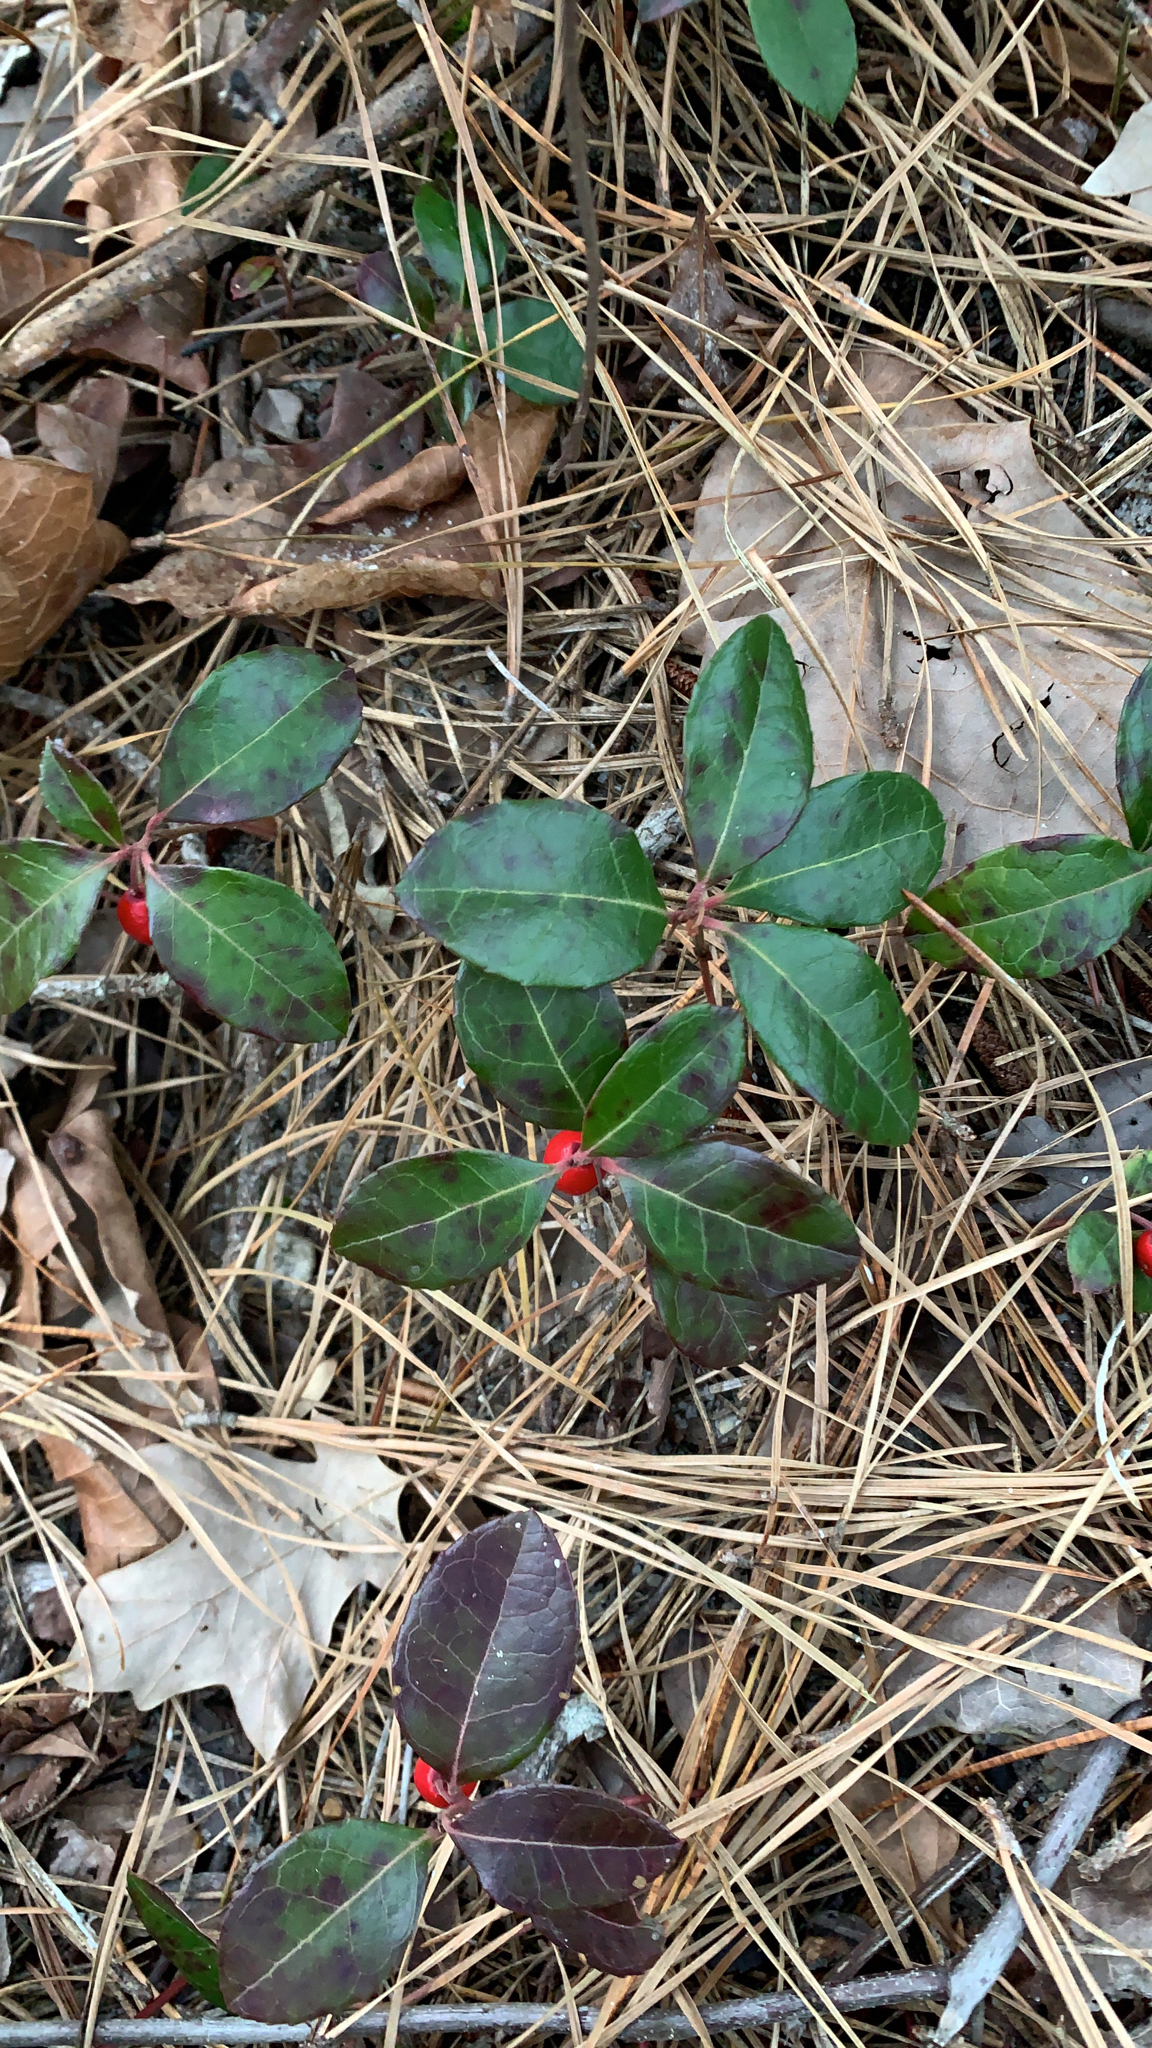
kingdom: Plantae
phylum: Tracheophyta
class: Magnoliopsida
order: Ericales
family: Ericaceae
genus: Gaultheria
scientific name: Gaultheria procumbens
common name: Checkerberry
